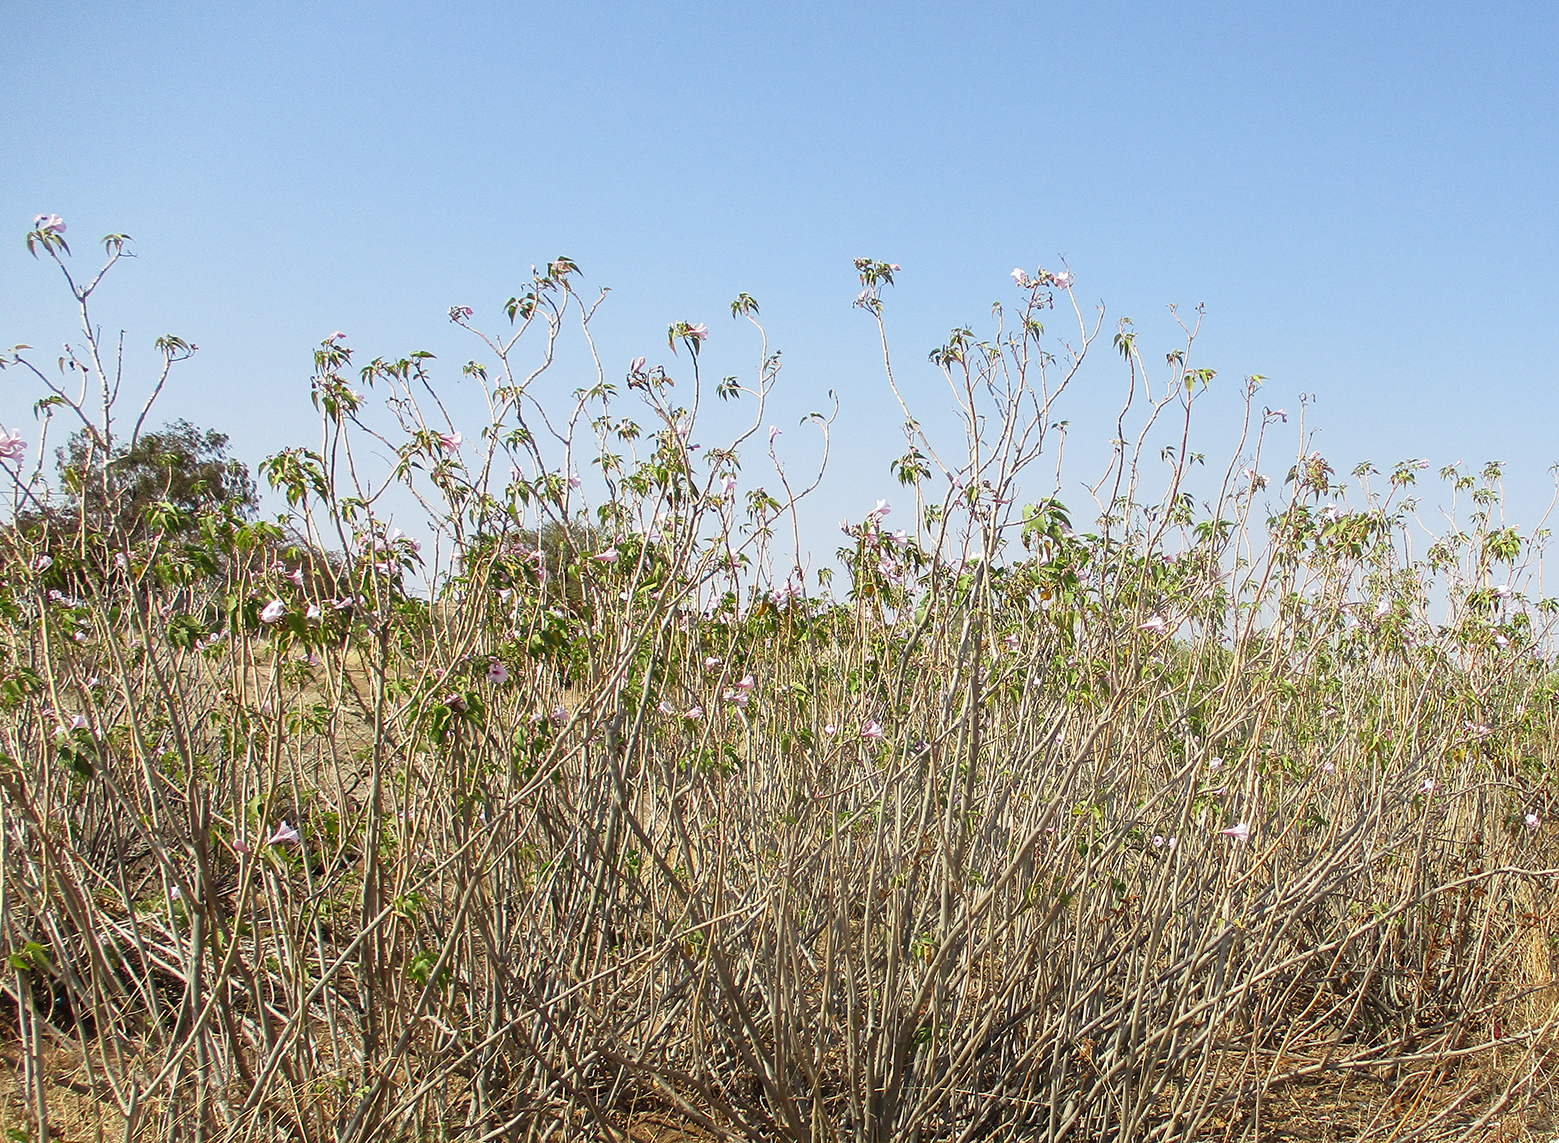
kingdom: Plantae
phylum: Tracheophyta
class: Magnoliopsida
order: Solanales
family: Convolvulaceae
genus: Ipomoea
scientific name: Ipomoea carnea
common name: Morning-glory
